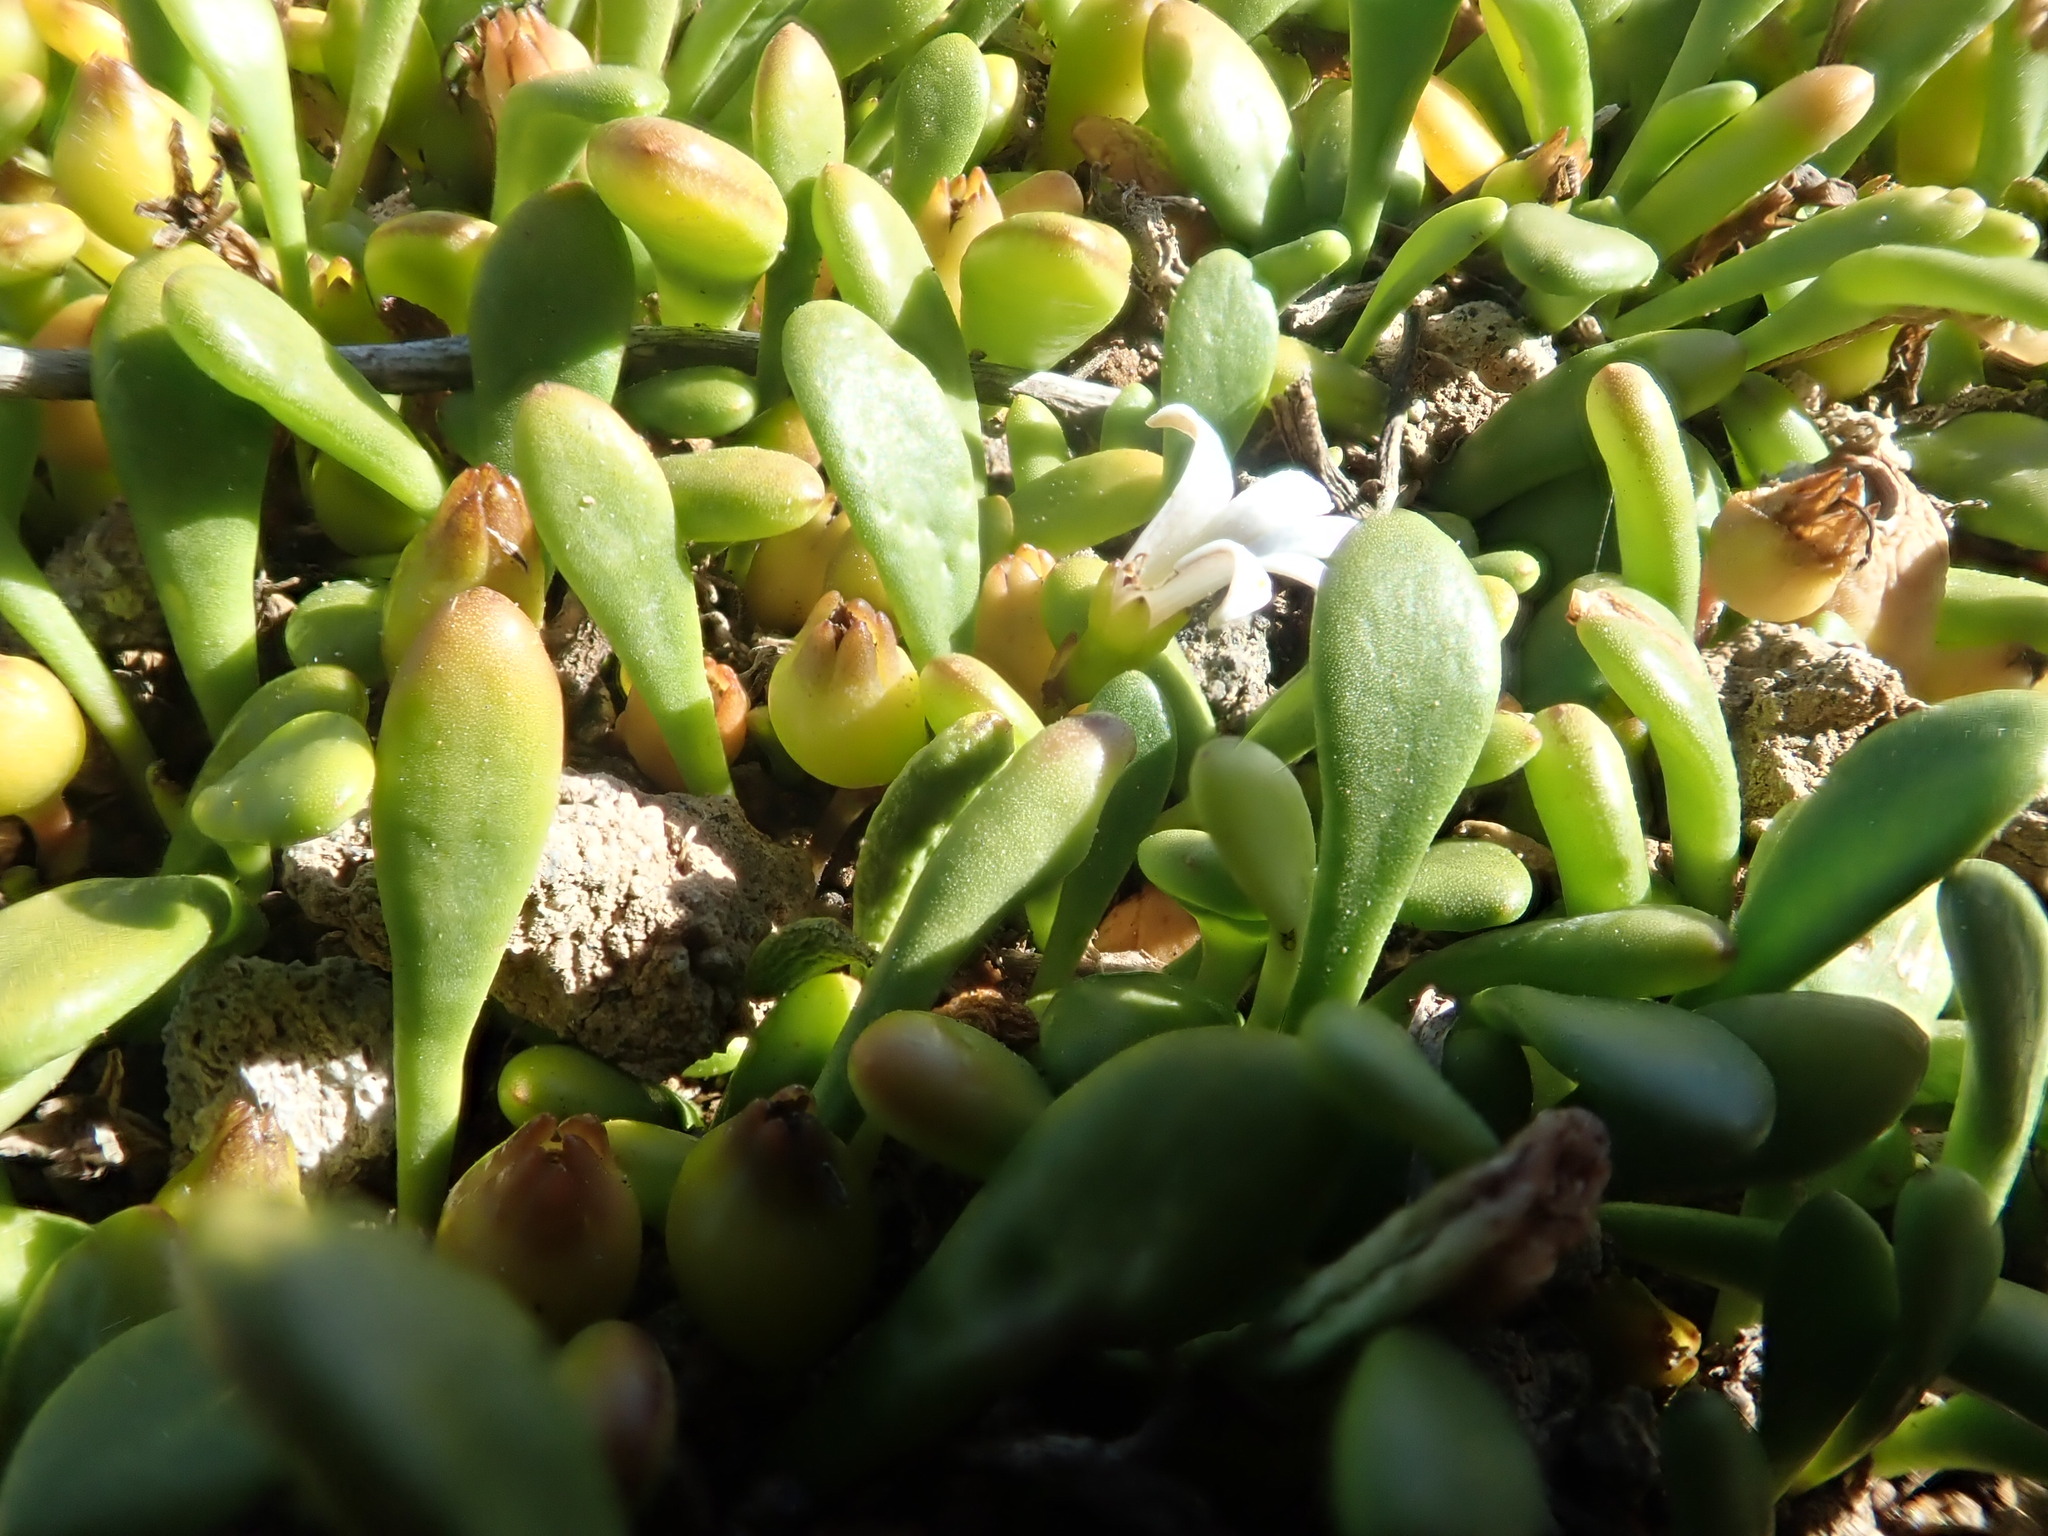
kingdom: Plantae
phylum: Tracheophyta
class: Magnoliopsida
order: Asterales
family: Goodeniaceae
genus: Goodenia
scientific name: Goodenia radicans
